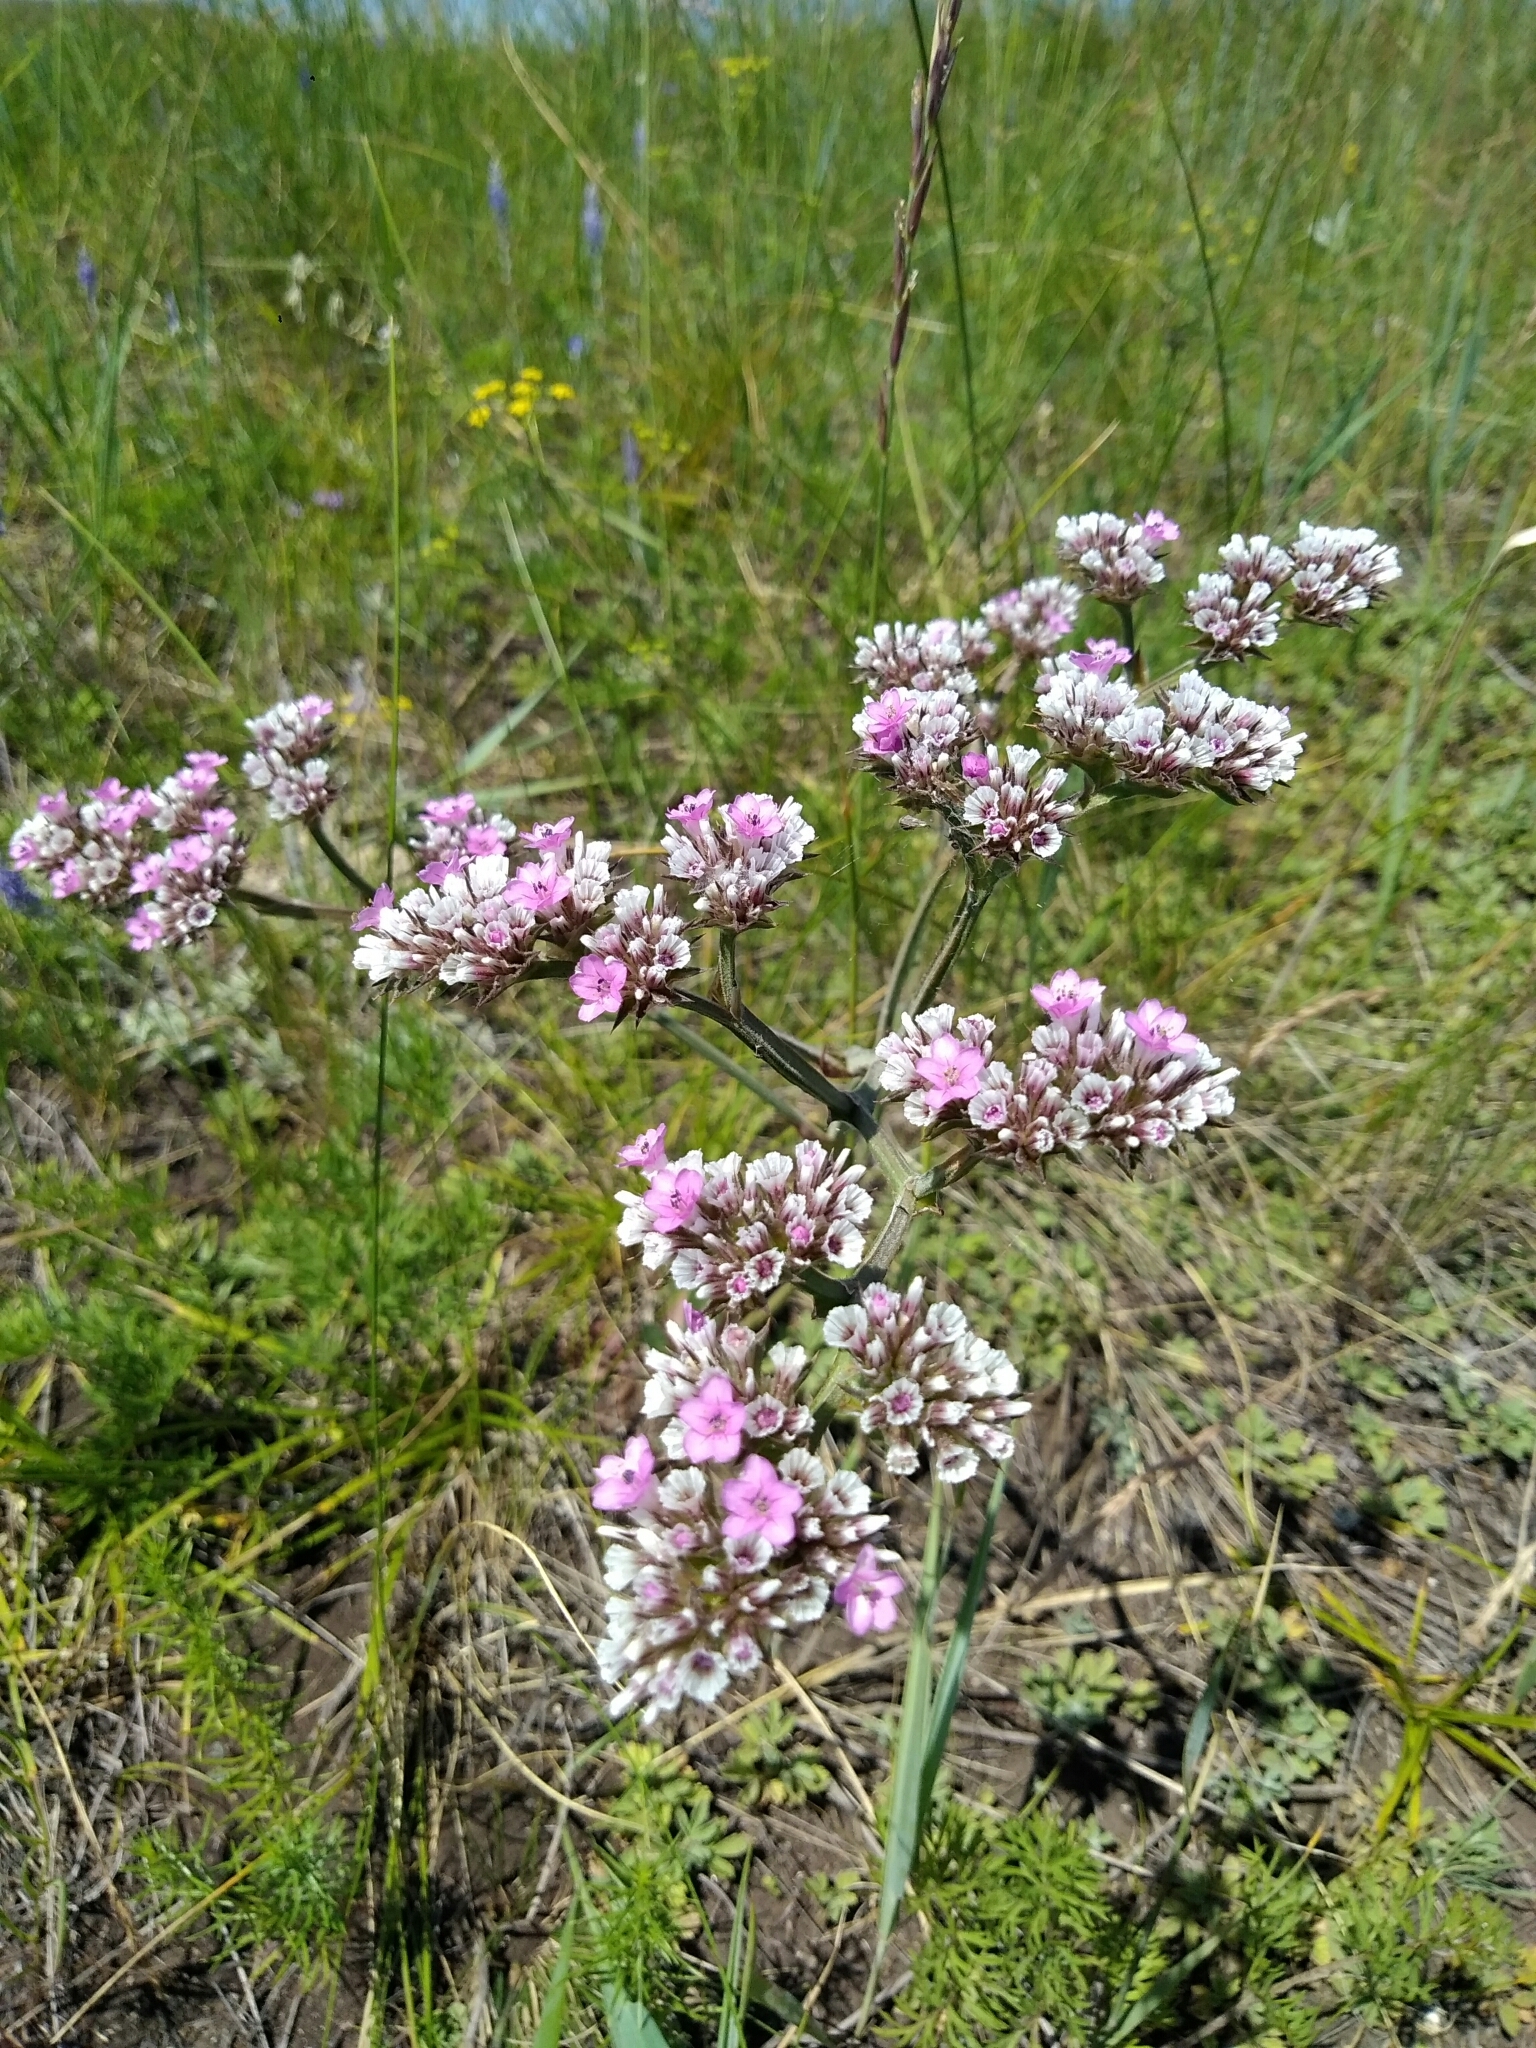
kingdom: Plantae
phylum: Tracheophyta
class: Magnoliopsida
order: Caryophyllales
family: Plumbaginaceae
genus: Goniolimon
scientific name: Goniolimon speciosum
